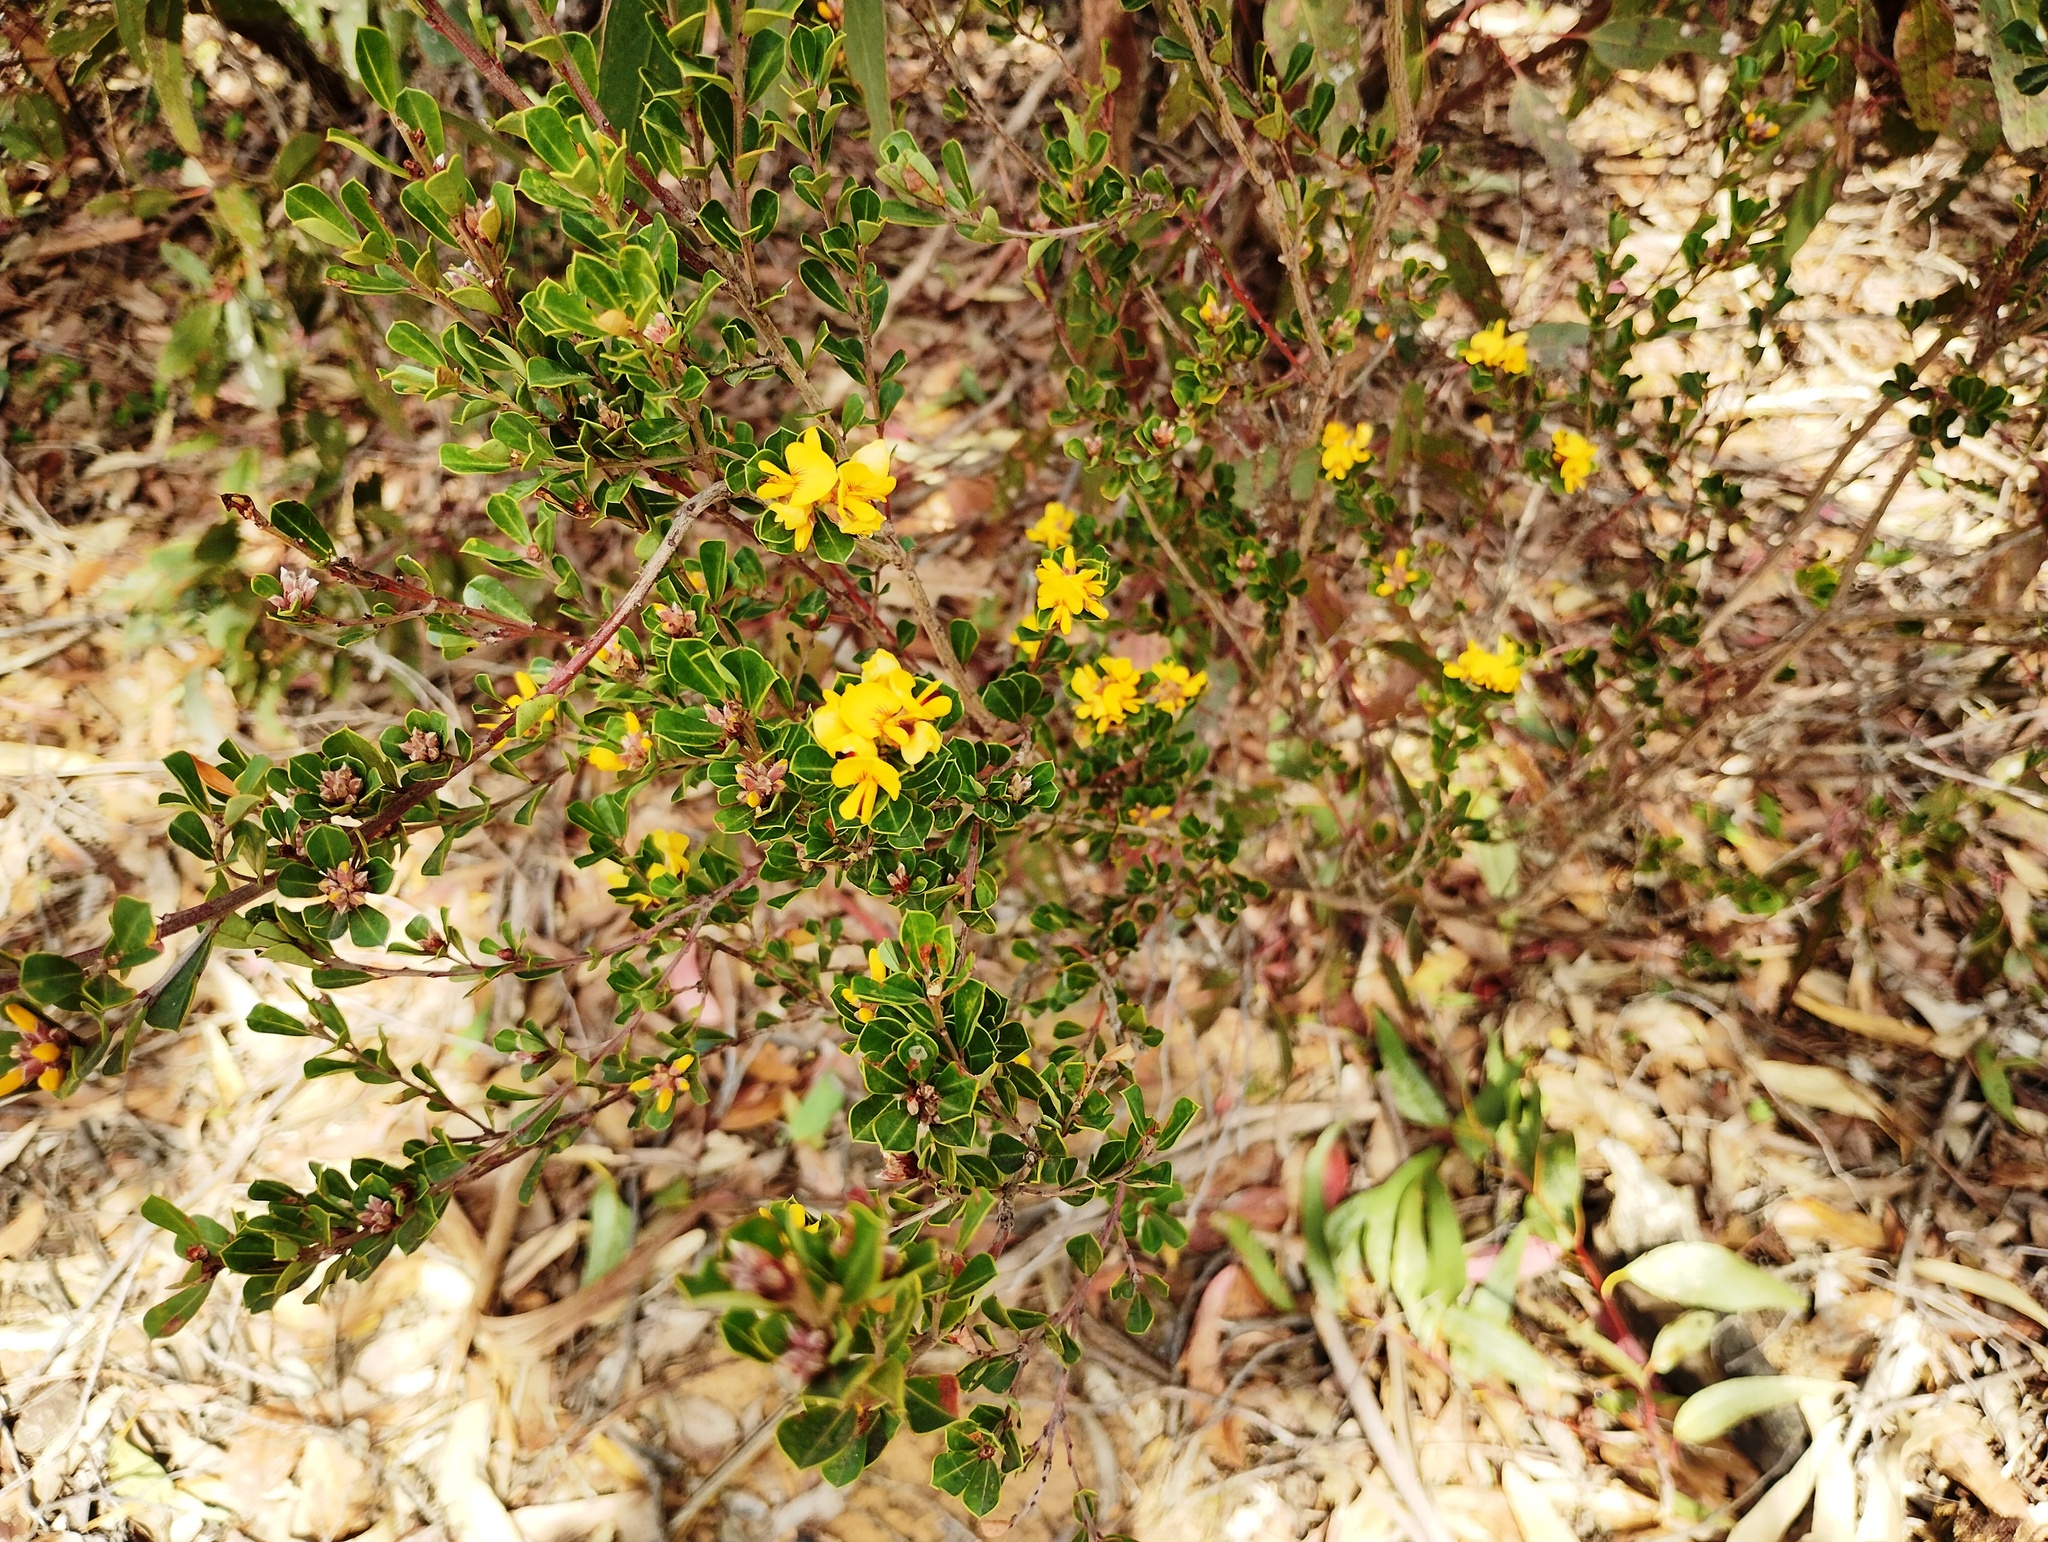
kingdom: Plantae
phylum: Tracheophyta
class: Magnoliopsida
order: Fabales
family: Fabaceae
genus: Pultenaea
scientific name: Pultenaea daphnoides
